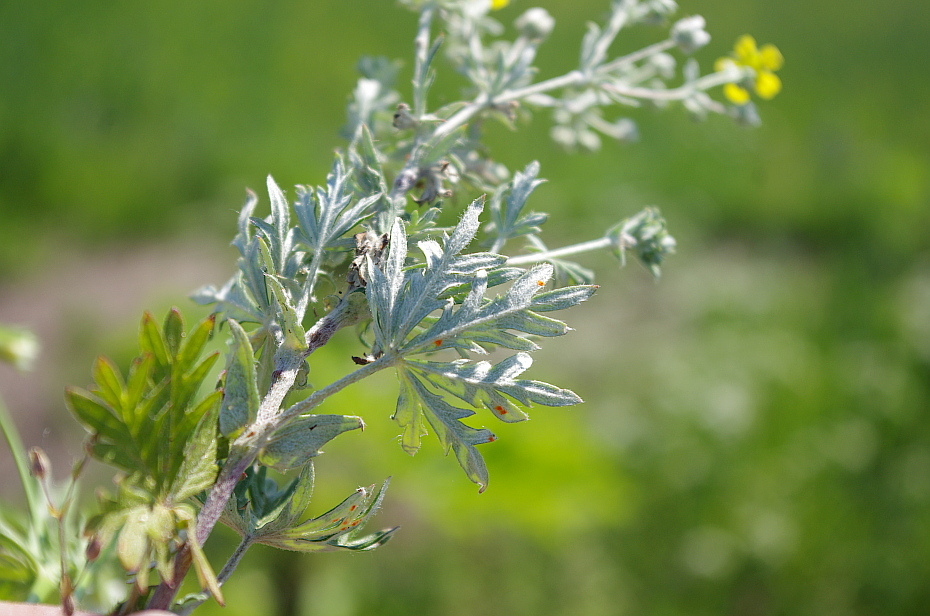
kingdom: Plantae
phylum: Tracheophyta
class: Magnoliopsida
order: Rosales
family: Rosaceae
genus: Potentilla
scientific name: Potentilla argentea
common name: Hoary cinquefoil
